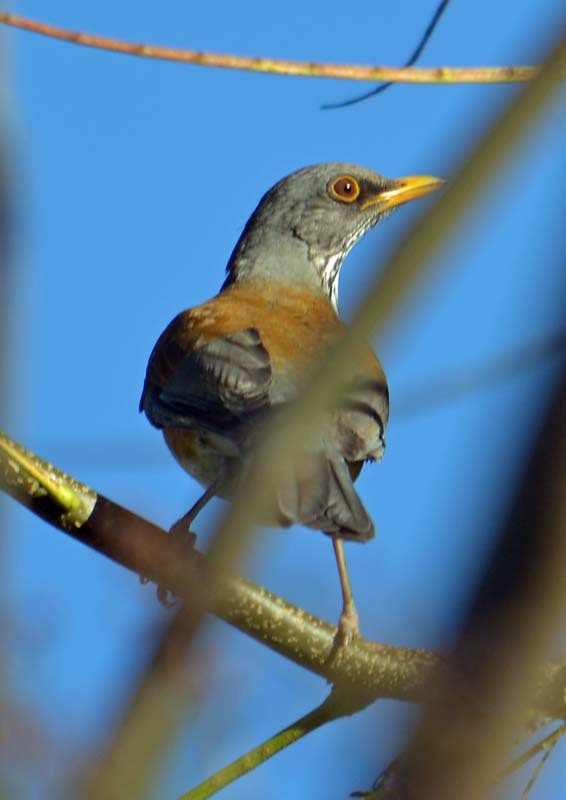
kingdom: Animalia
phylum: Chordata
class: Aves
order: Passeriformes
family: Turdidae
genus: Turdus
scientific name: Turdus rufopalliatus
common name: Rufous-backed robin
